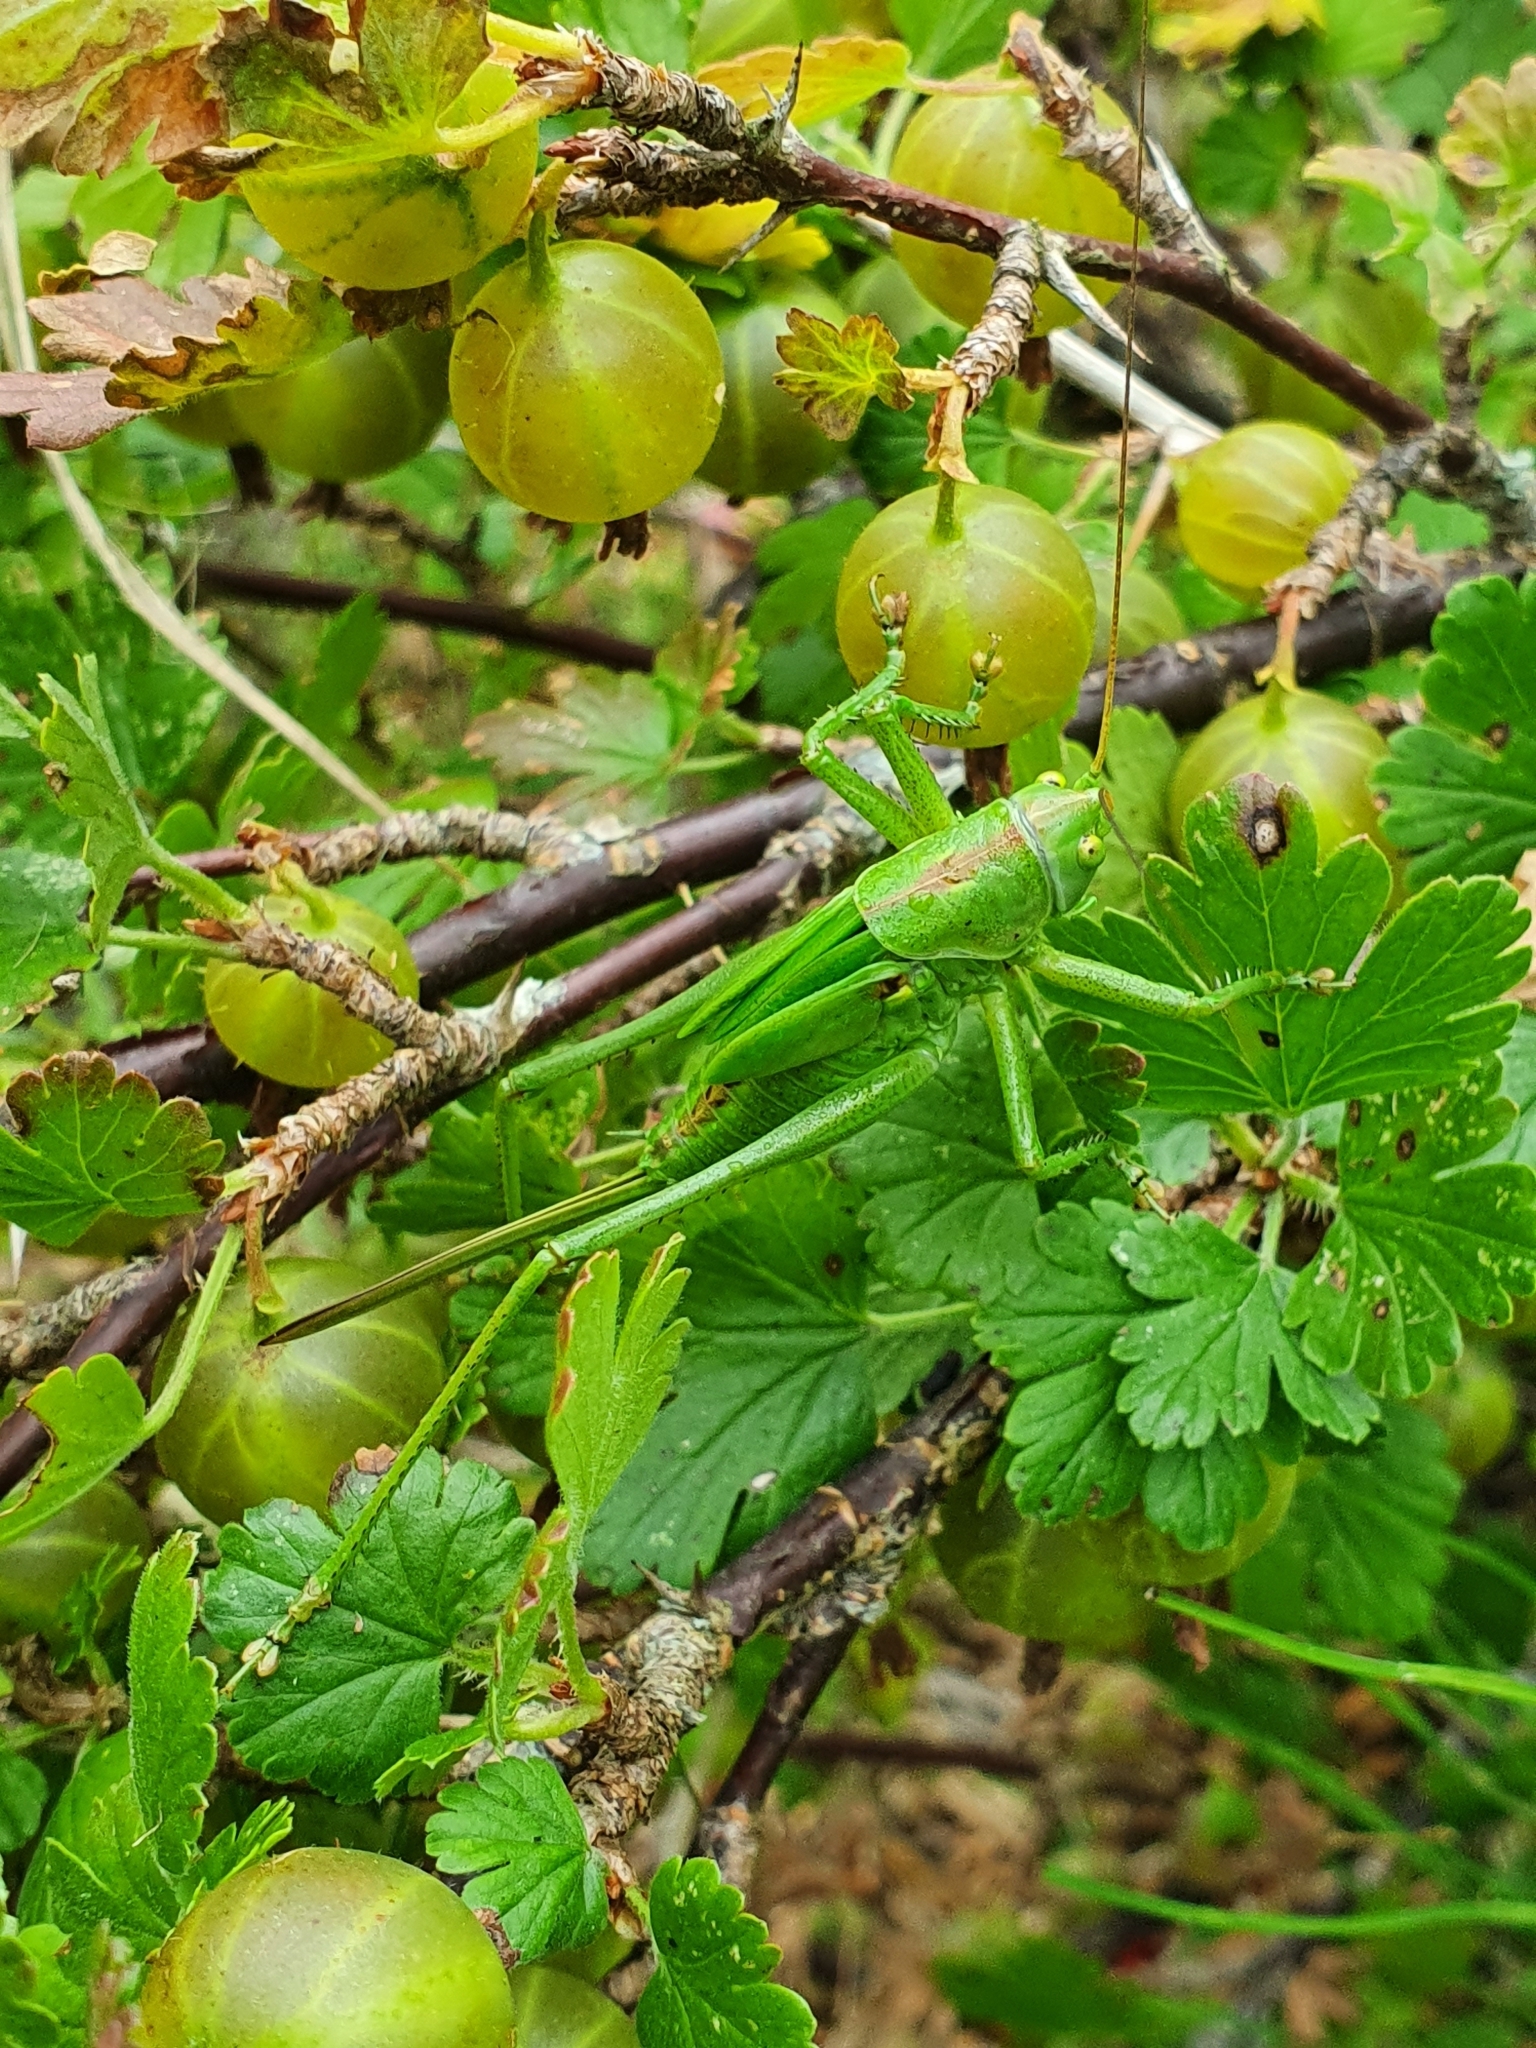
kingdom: Animalia
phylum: Arthropoda
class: Insecta
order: Orthoptera
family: Tettigoniidae
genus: Tettigonia
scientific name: Tettigonia viridissima
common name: Great green bush-cricket
